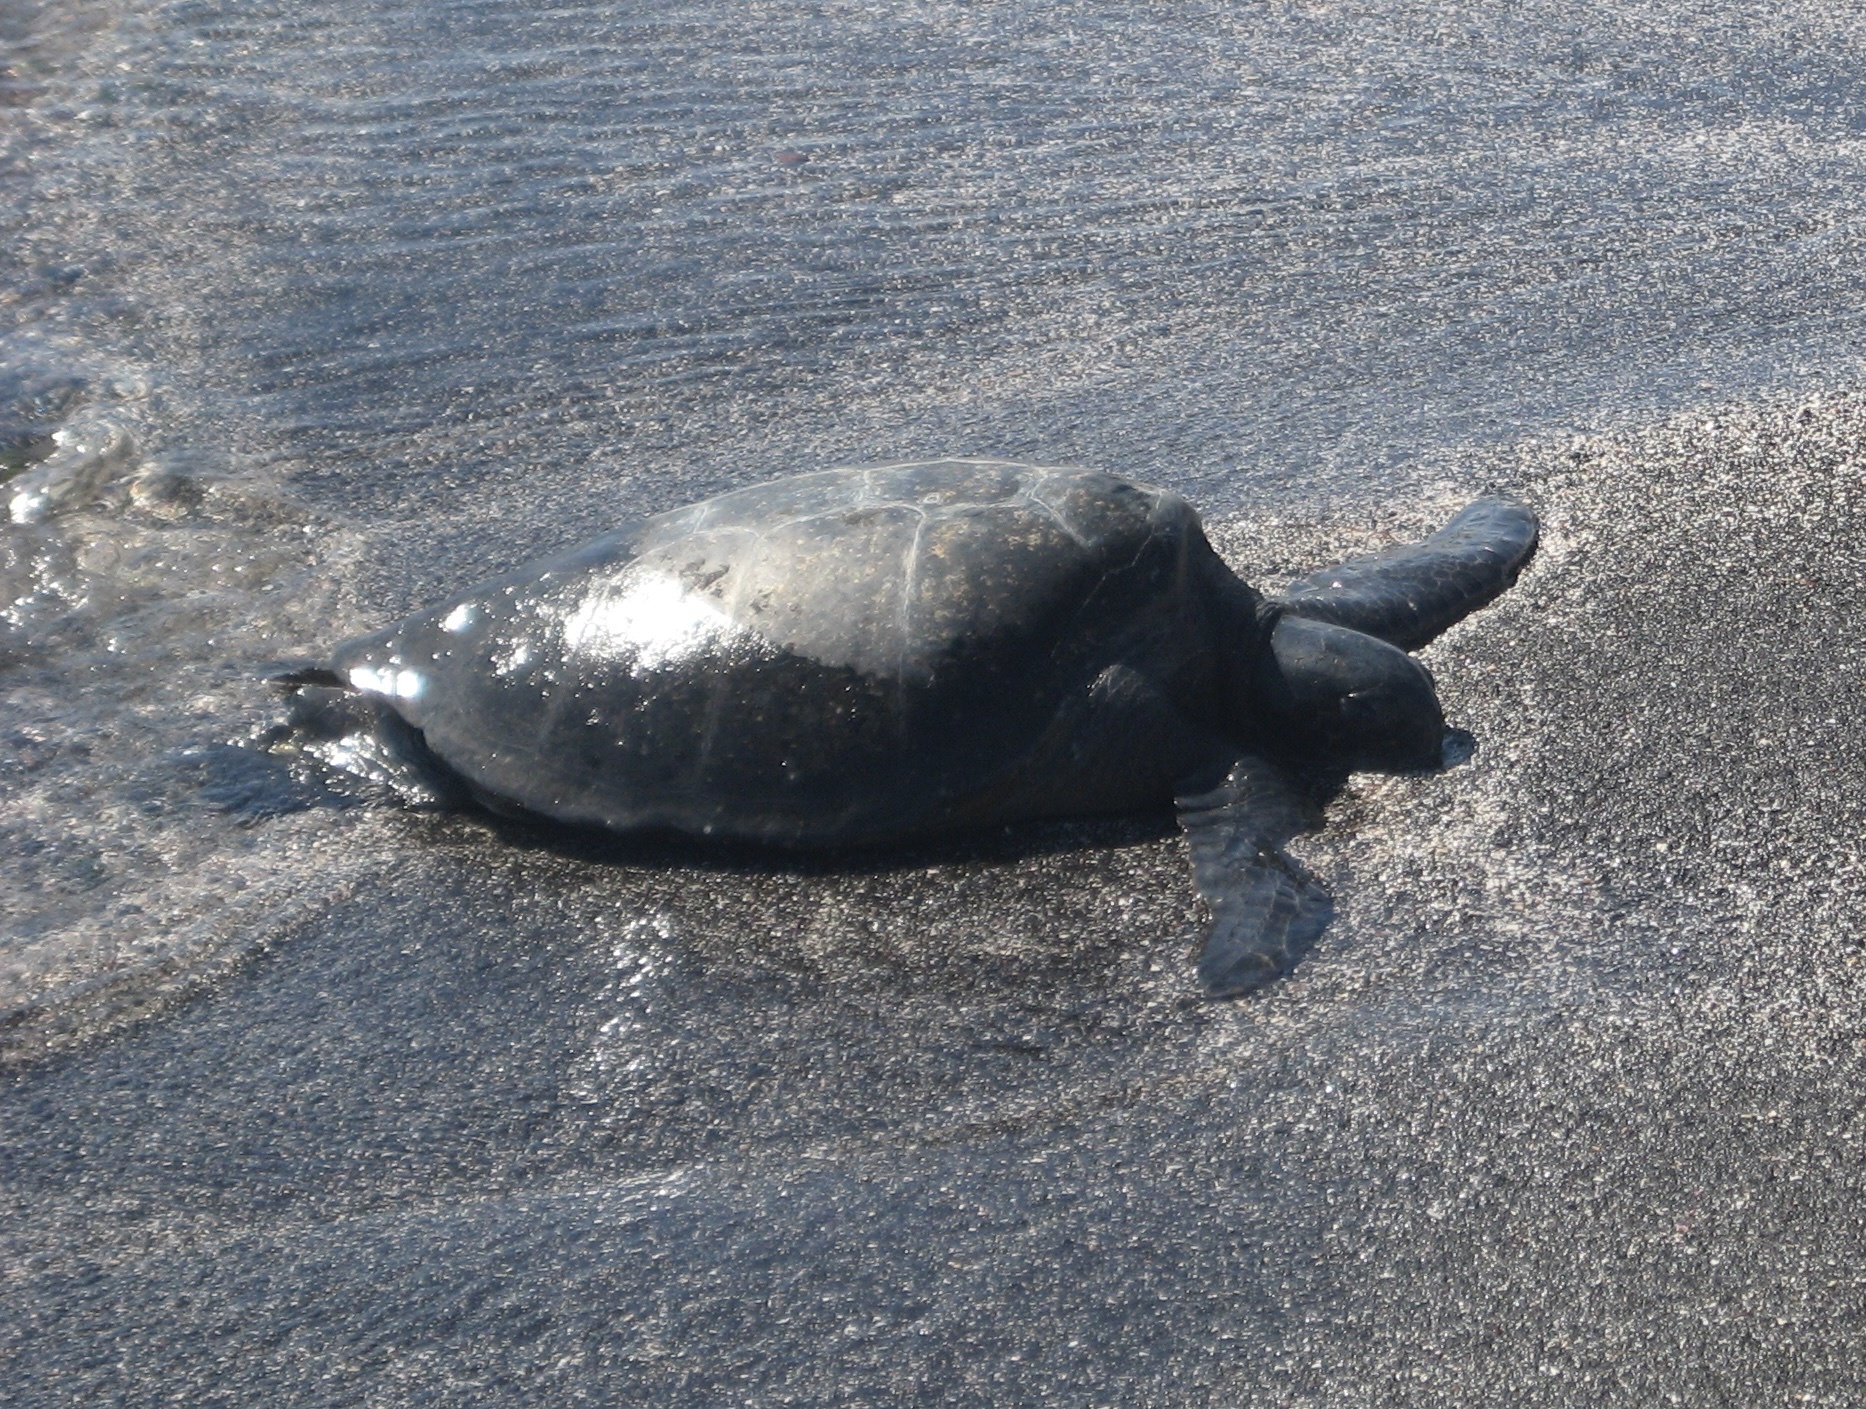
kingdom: Animalia
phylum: Chordata
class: Testudines
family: Cheloniidae
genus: Chelonia
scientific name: Chelonia mydas
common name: Green turtle
